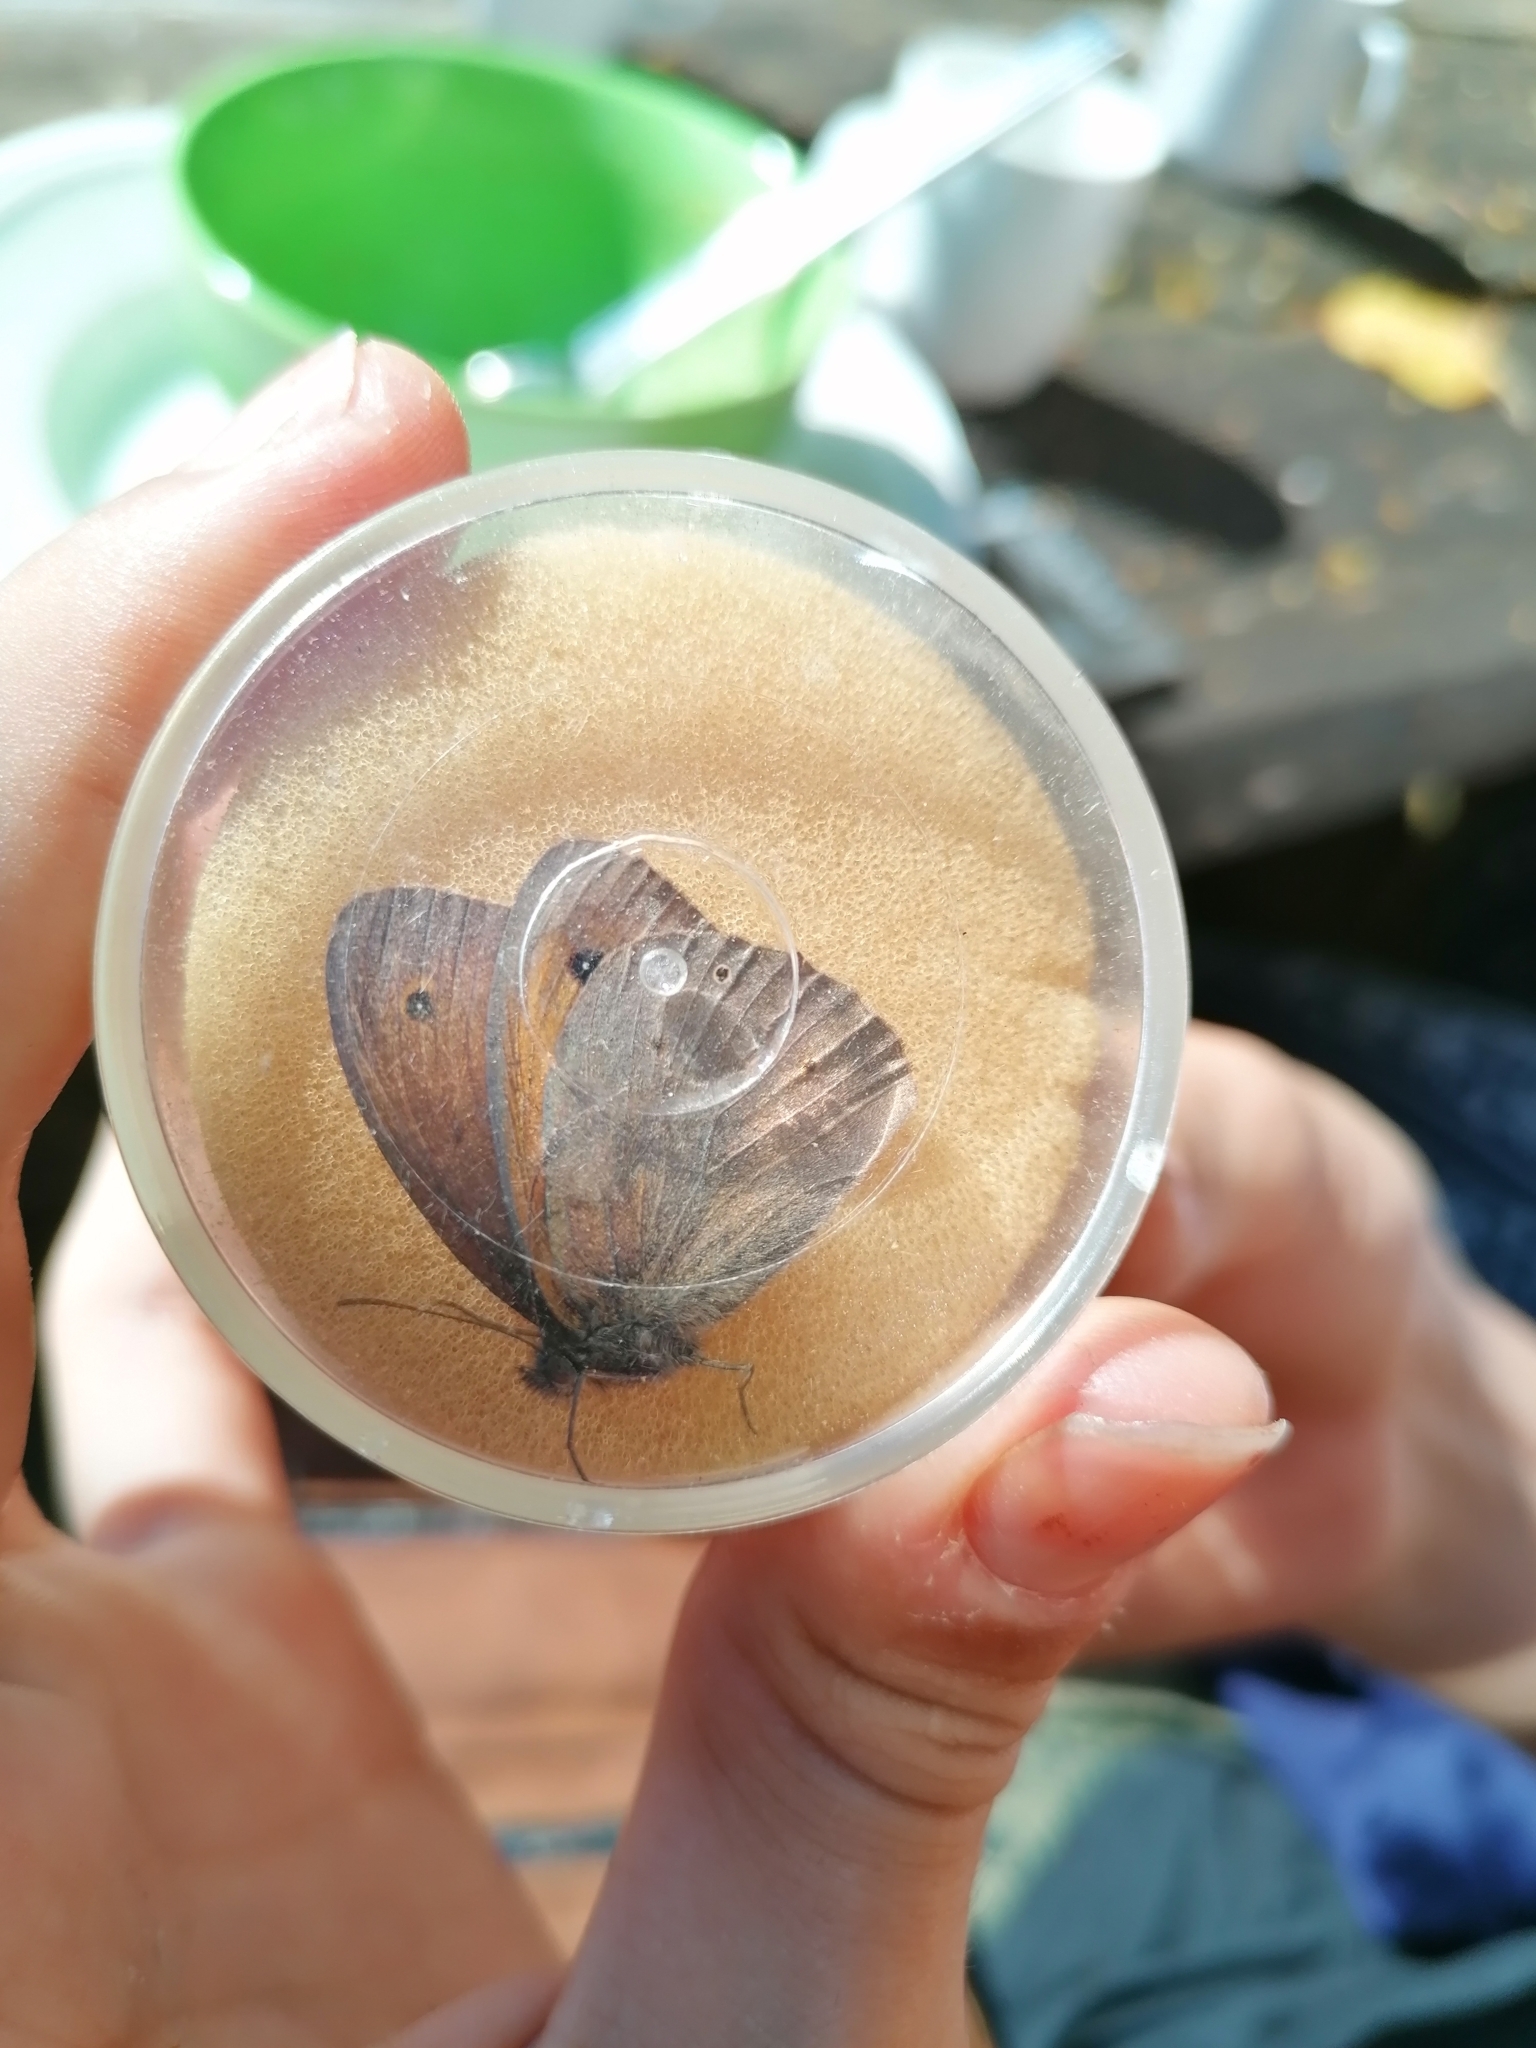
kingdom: Animalia
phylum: Arthropoda
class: Insecta
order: Lepidoptera
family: Nymphalidae
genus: Maniola
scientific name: Maniola jurtina
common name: Meadow brown
